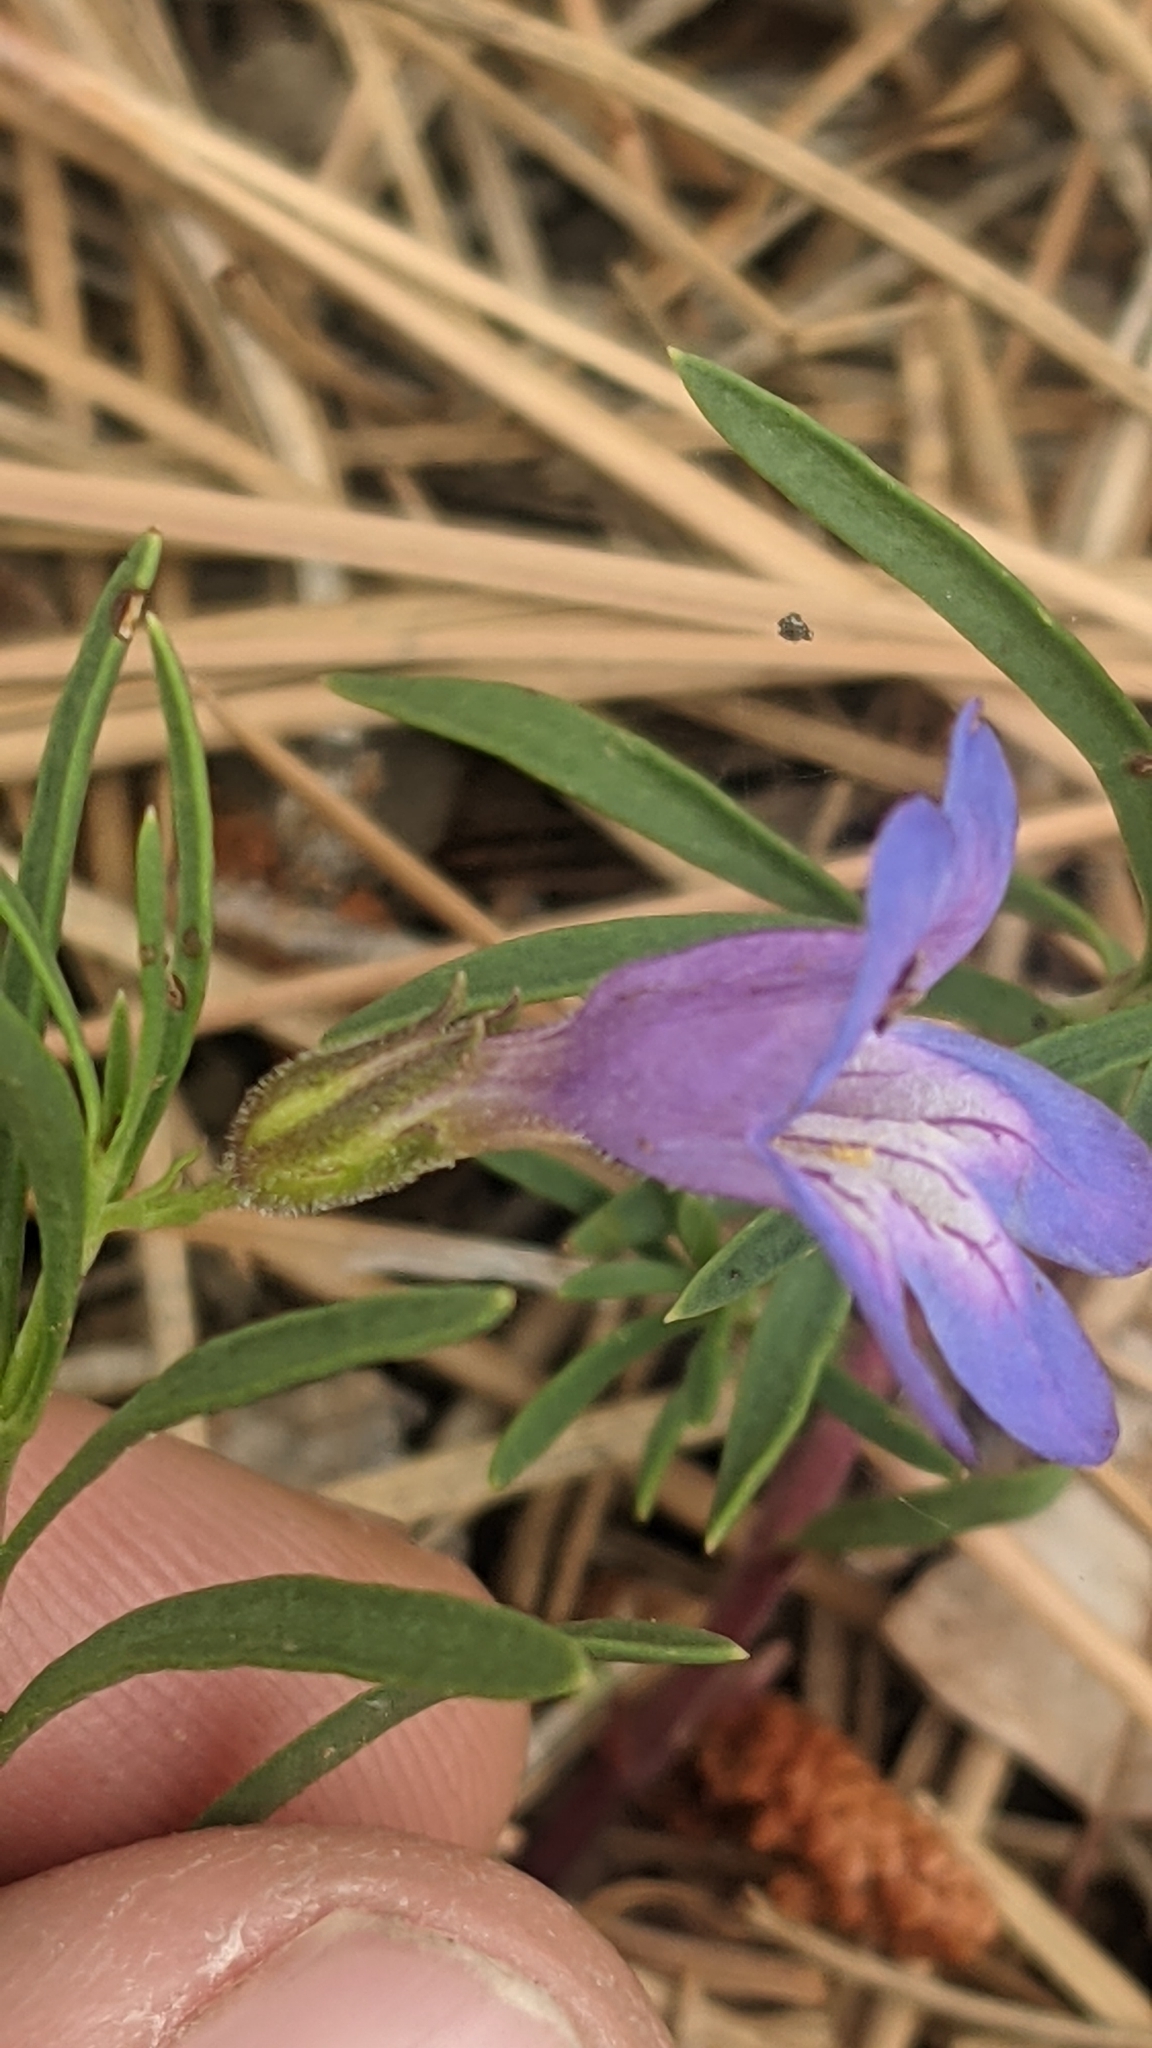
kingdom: Plantae
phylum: Tracheophyta
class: Magnoliopsida
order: Lamiales
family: Plantaginaceae
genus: Penstemon
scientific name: Penstemon linarioides
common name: Siler's penstemon
